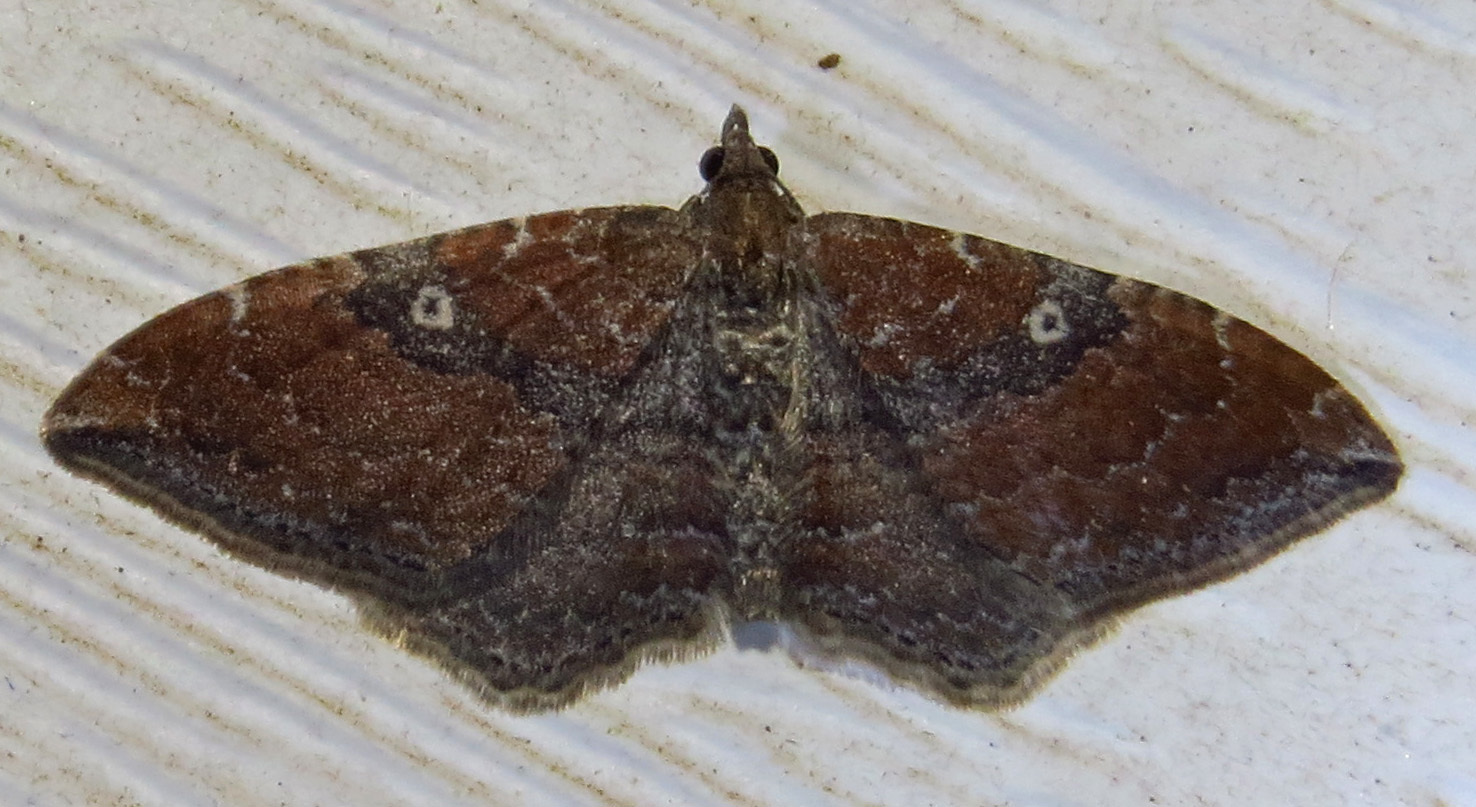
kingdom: Animalia
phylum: Arthropoda
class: Insecta
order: Lepidoptera
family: Geometridae
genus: Orthonama
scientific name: Orthonama obstipata
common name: The gem
